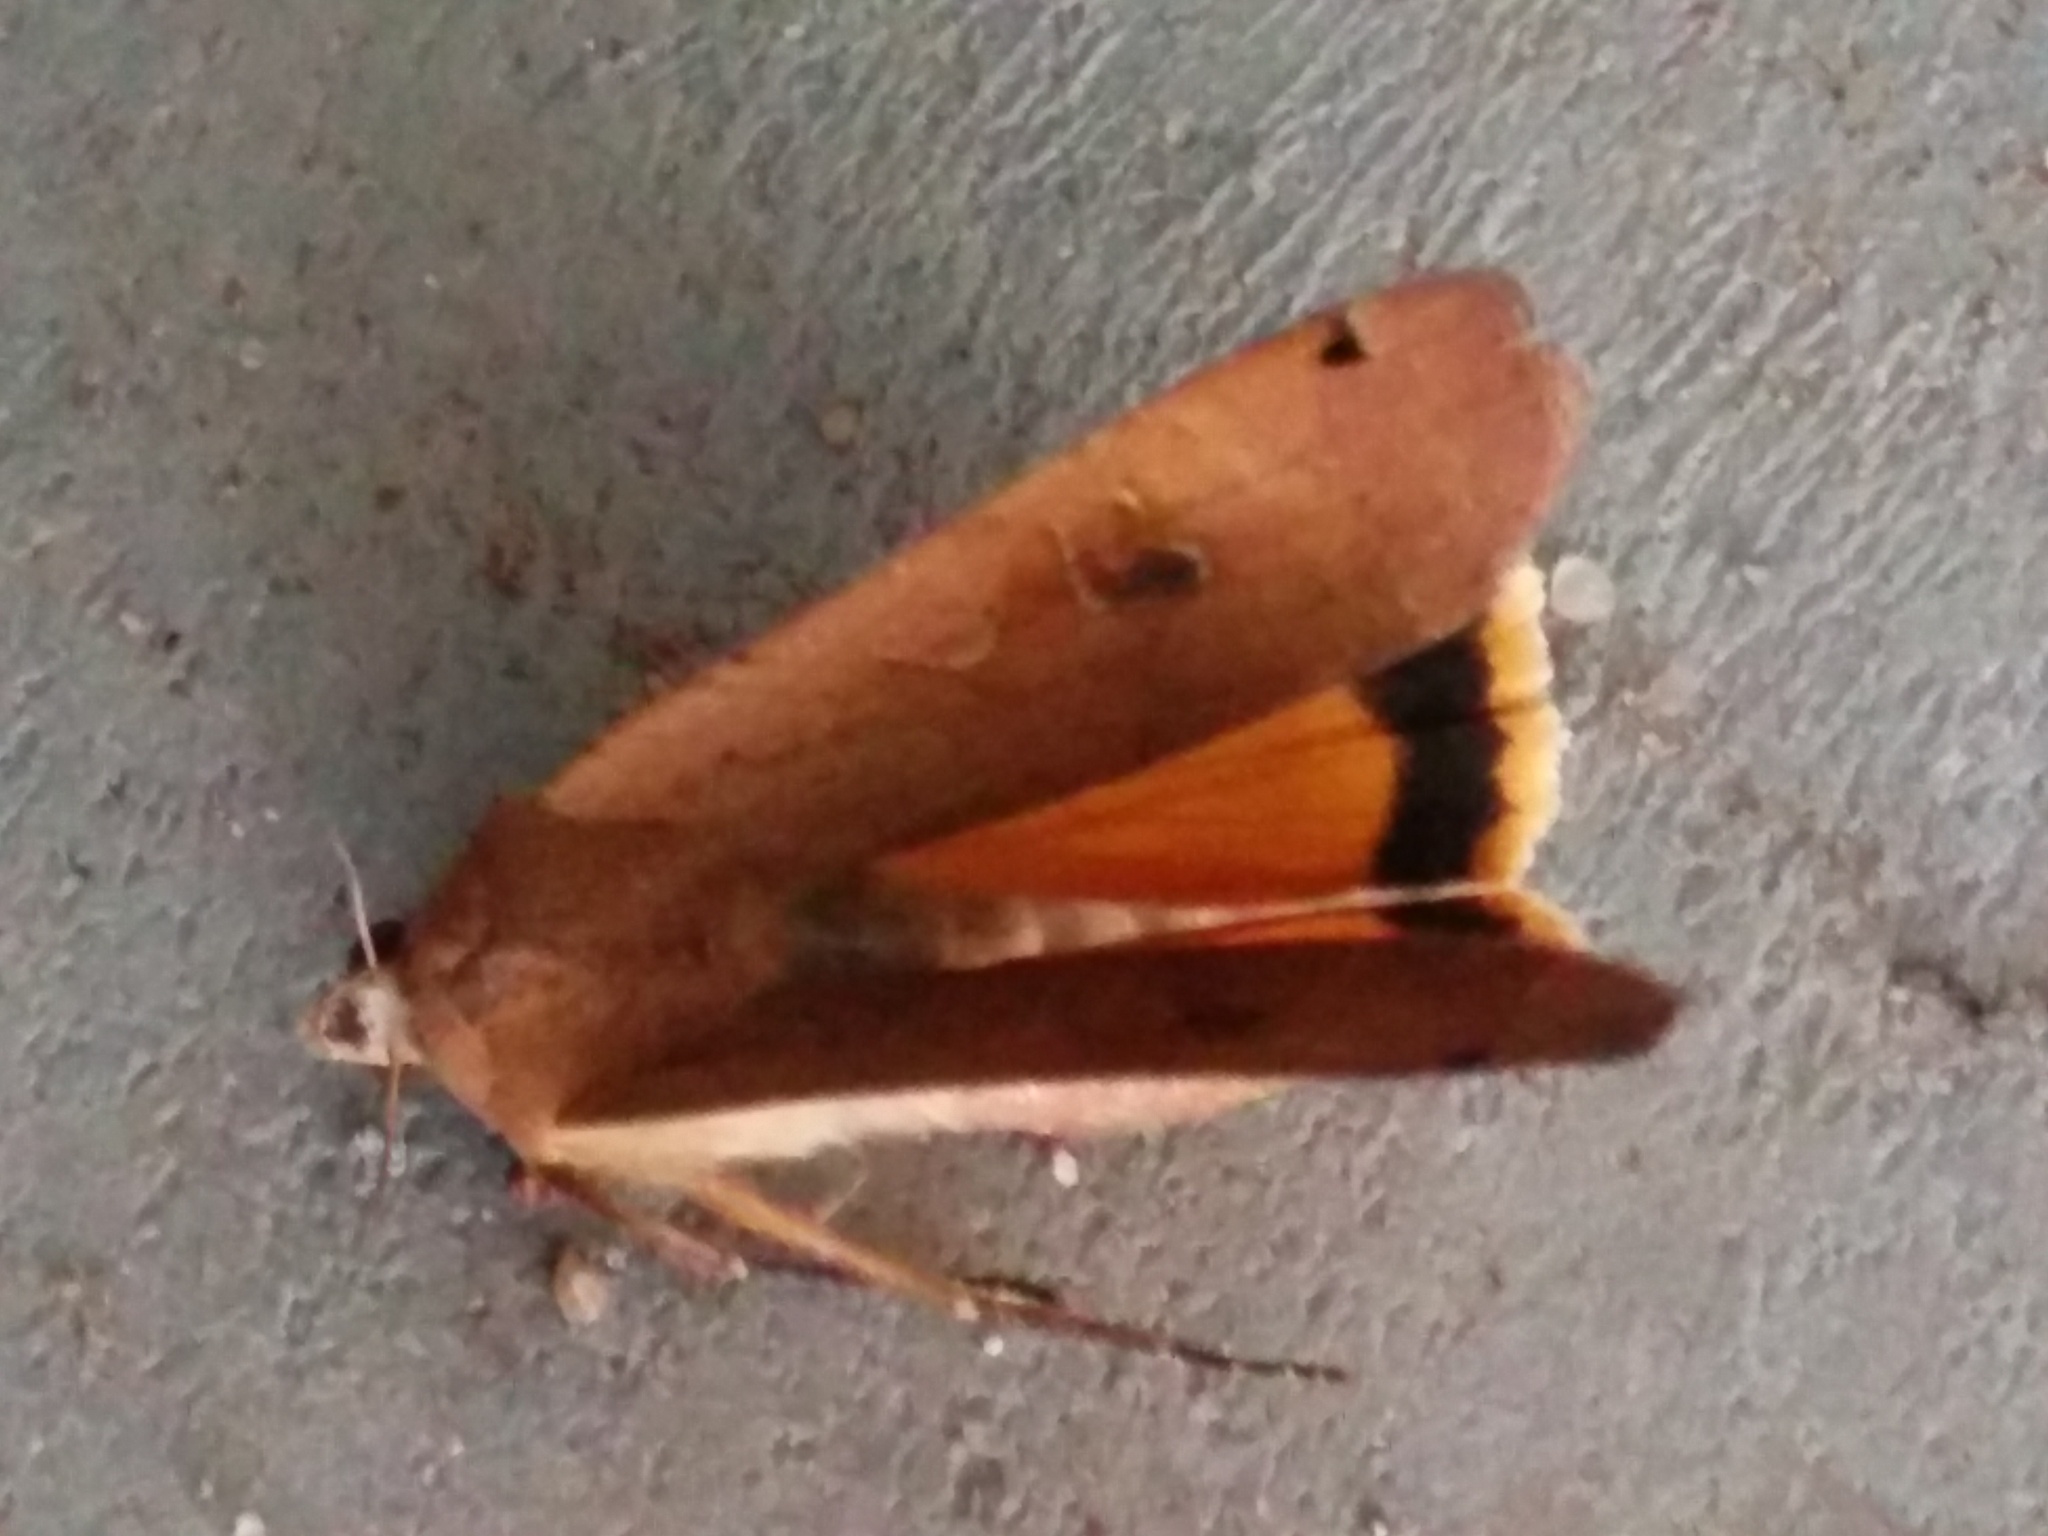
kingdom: Animalia
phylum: Arthropoda
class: Insecta
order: Lepidoptera
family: Noctuidae
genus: Noctua
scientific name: Noctua pronuba
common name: Large yellow underwing
